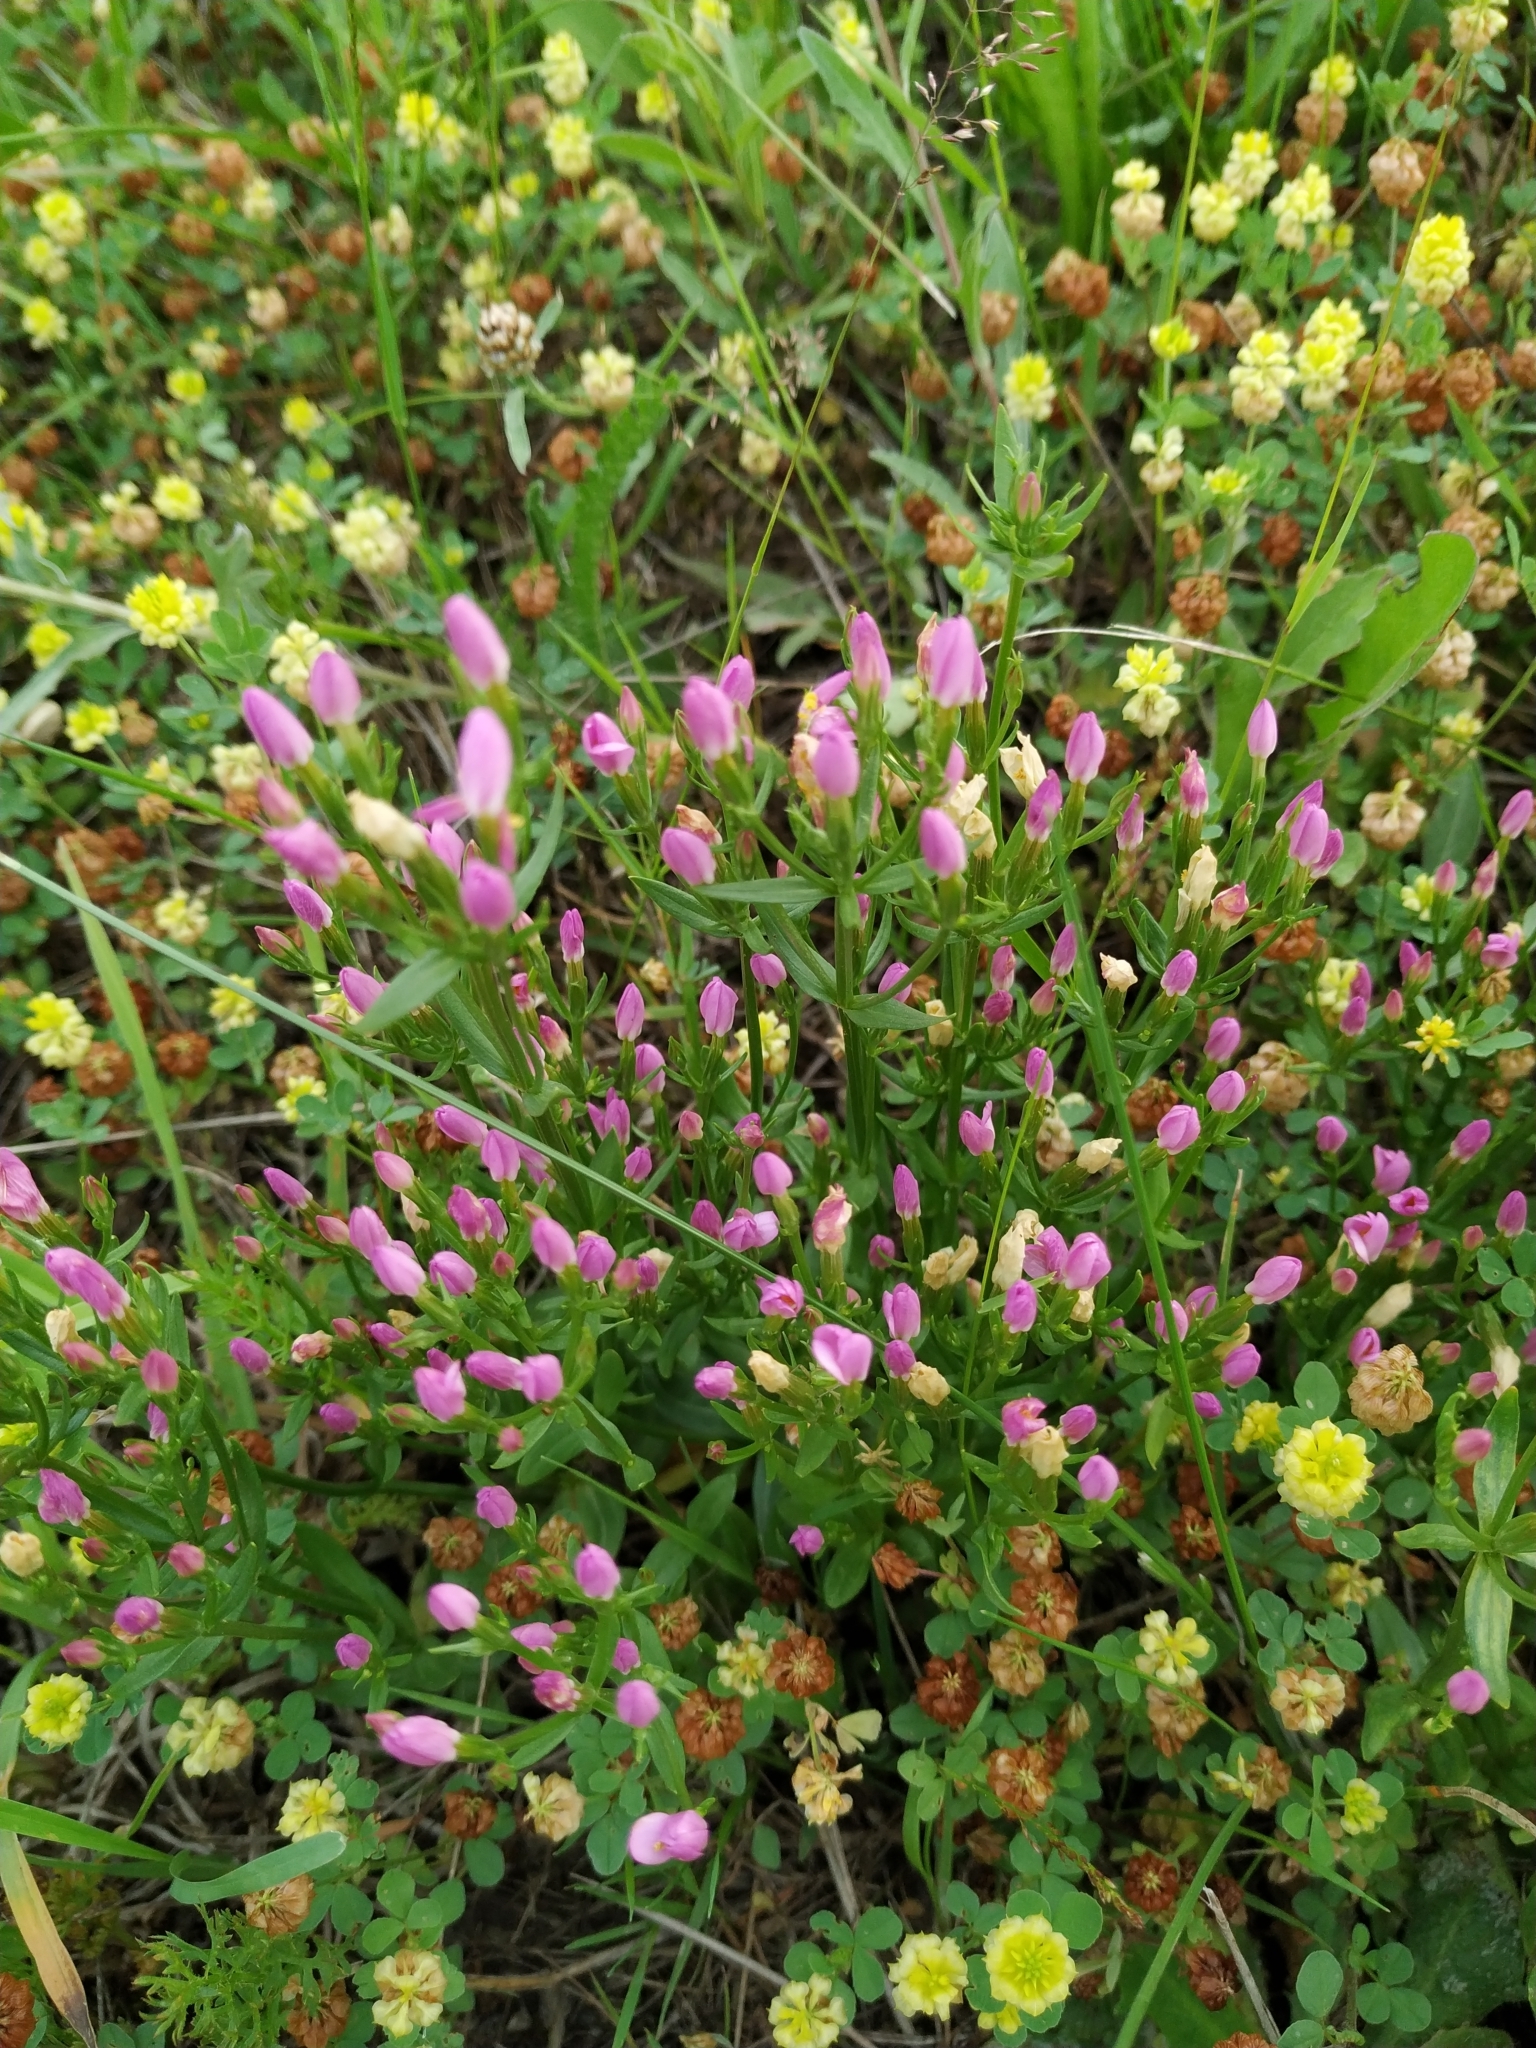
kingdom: Plantae
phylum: Tracheophyta
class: Magnoliopsida
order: Gentianales
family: Gentianaceae
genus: Centaurium
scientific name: Centaurium erythraea
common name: Common centaury
